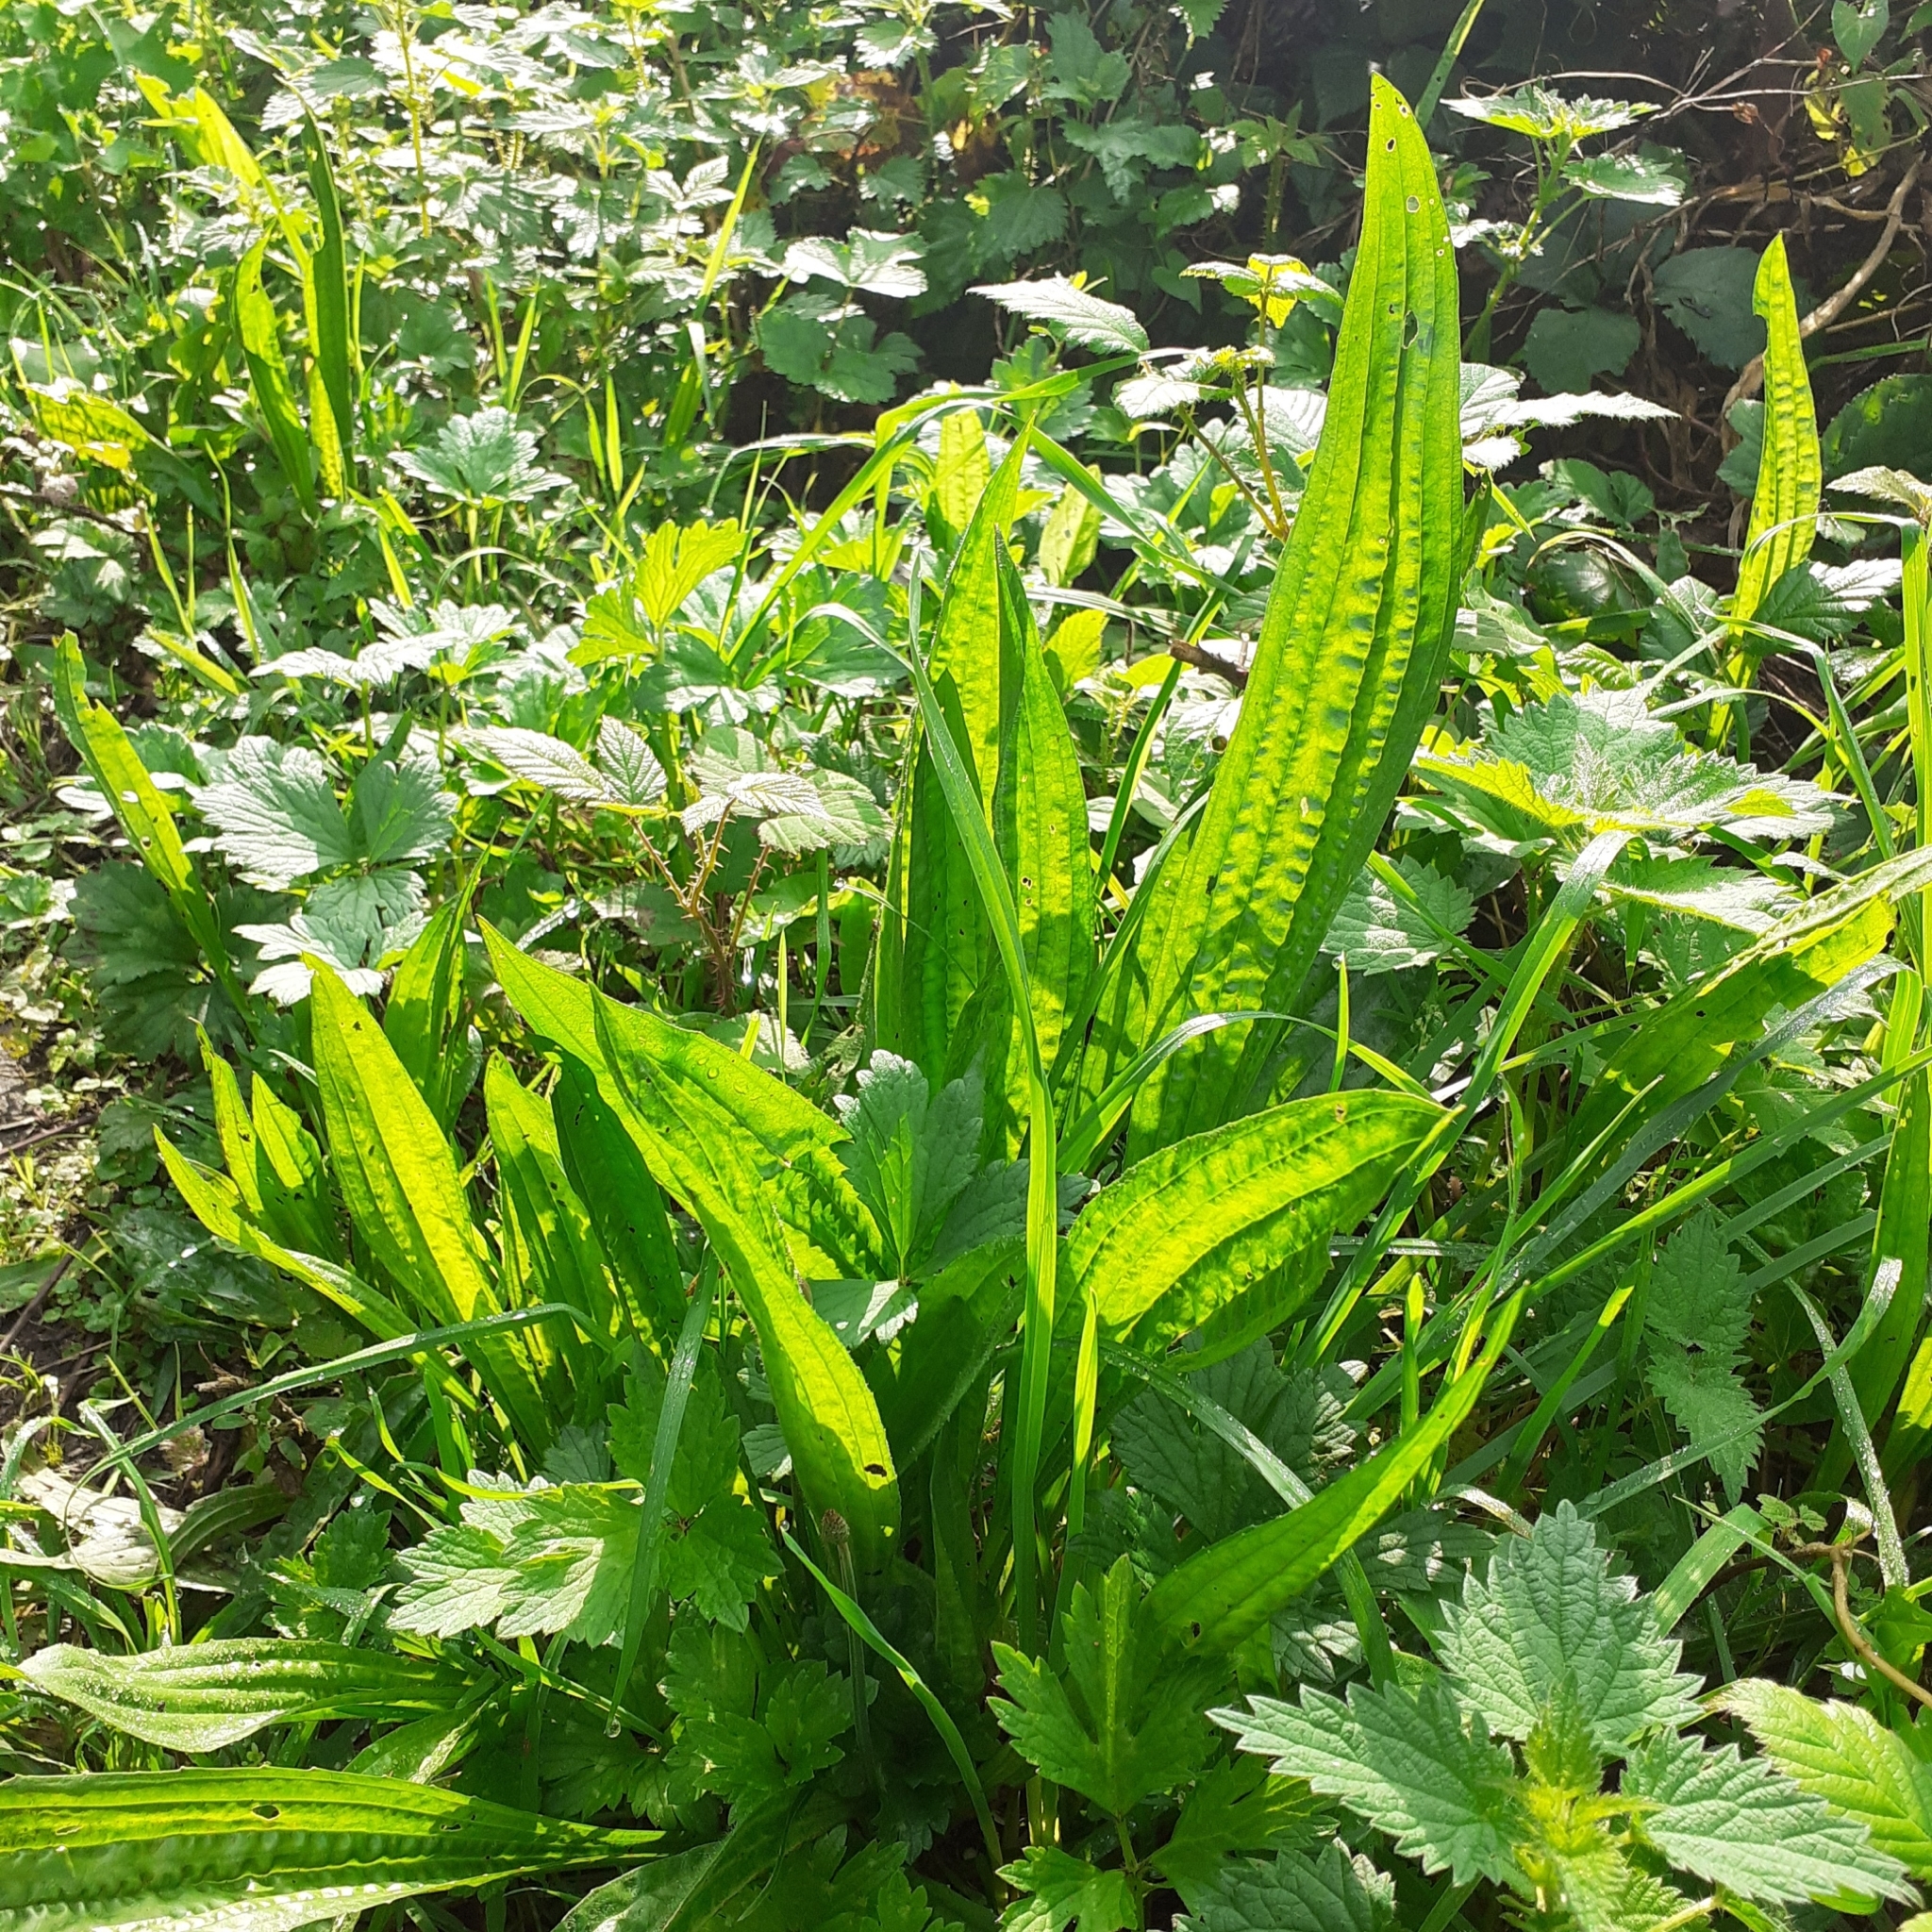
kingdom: Plantae
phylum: Tracheophyta
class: Magnoliopsida
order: Lamiales
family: Plantaginaceae
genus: Plantago
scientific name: Plantago lanceolata
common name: Ribwort plantain
